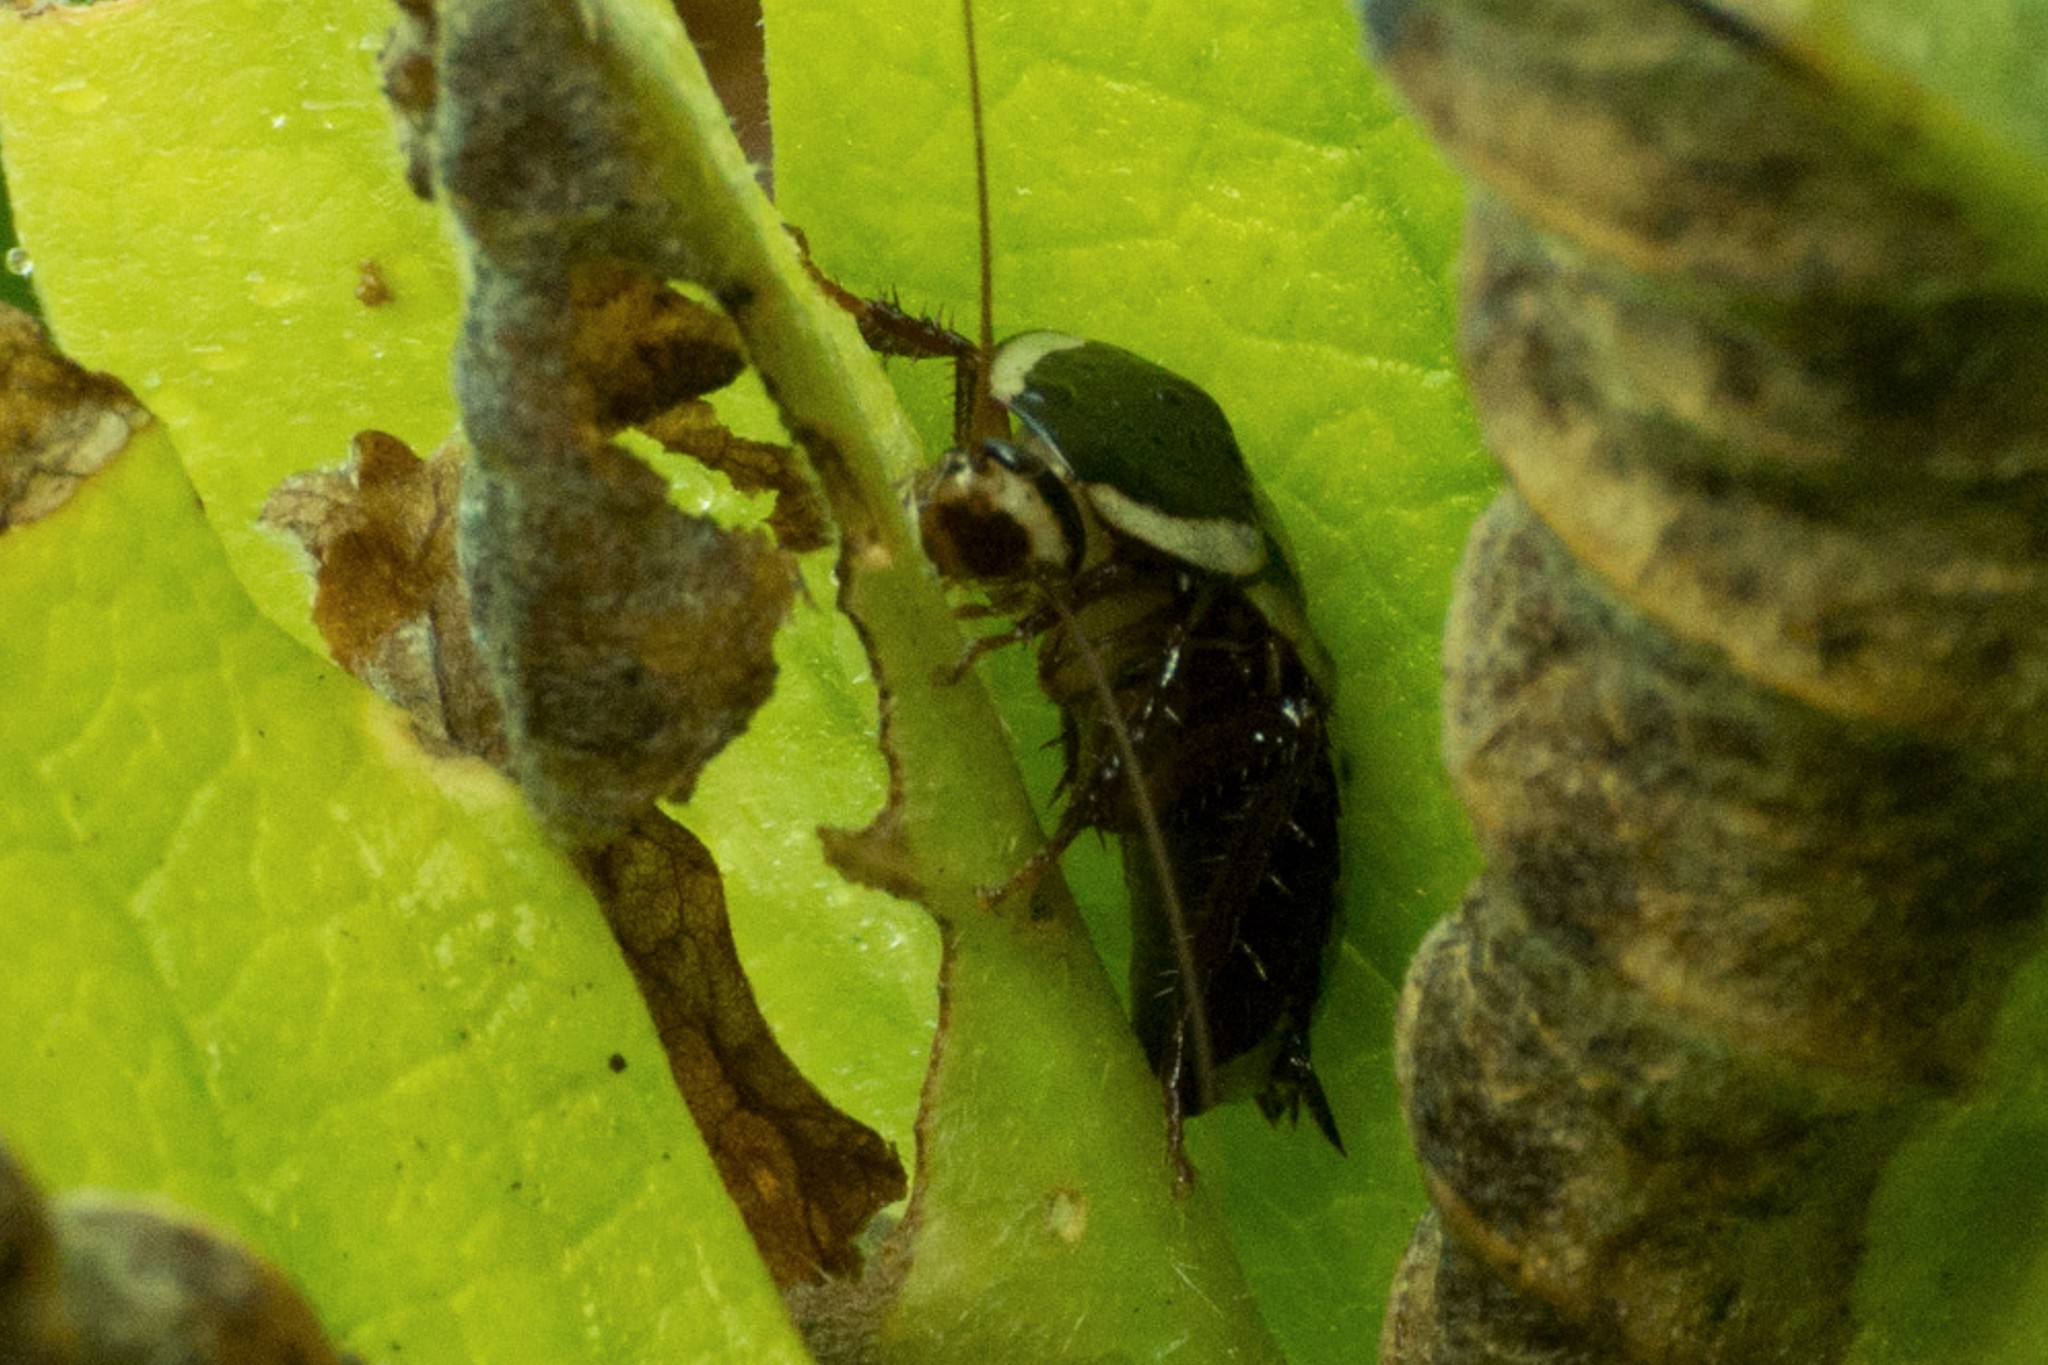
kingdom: Animalia
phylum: Arthropoda
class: Insecta
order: Blattodea
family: Blattidae
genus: Drymaplaneta
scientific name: Drymaplaneta
